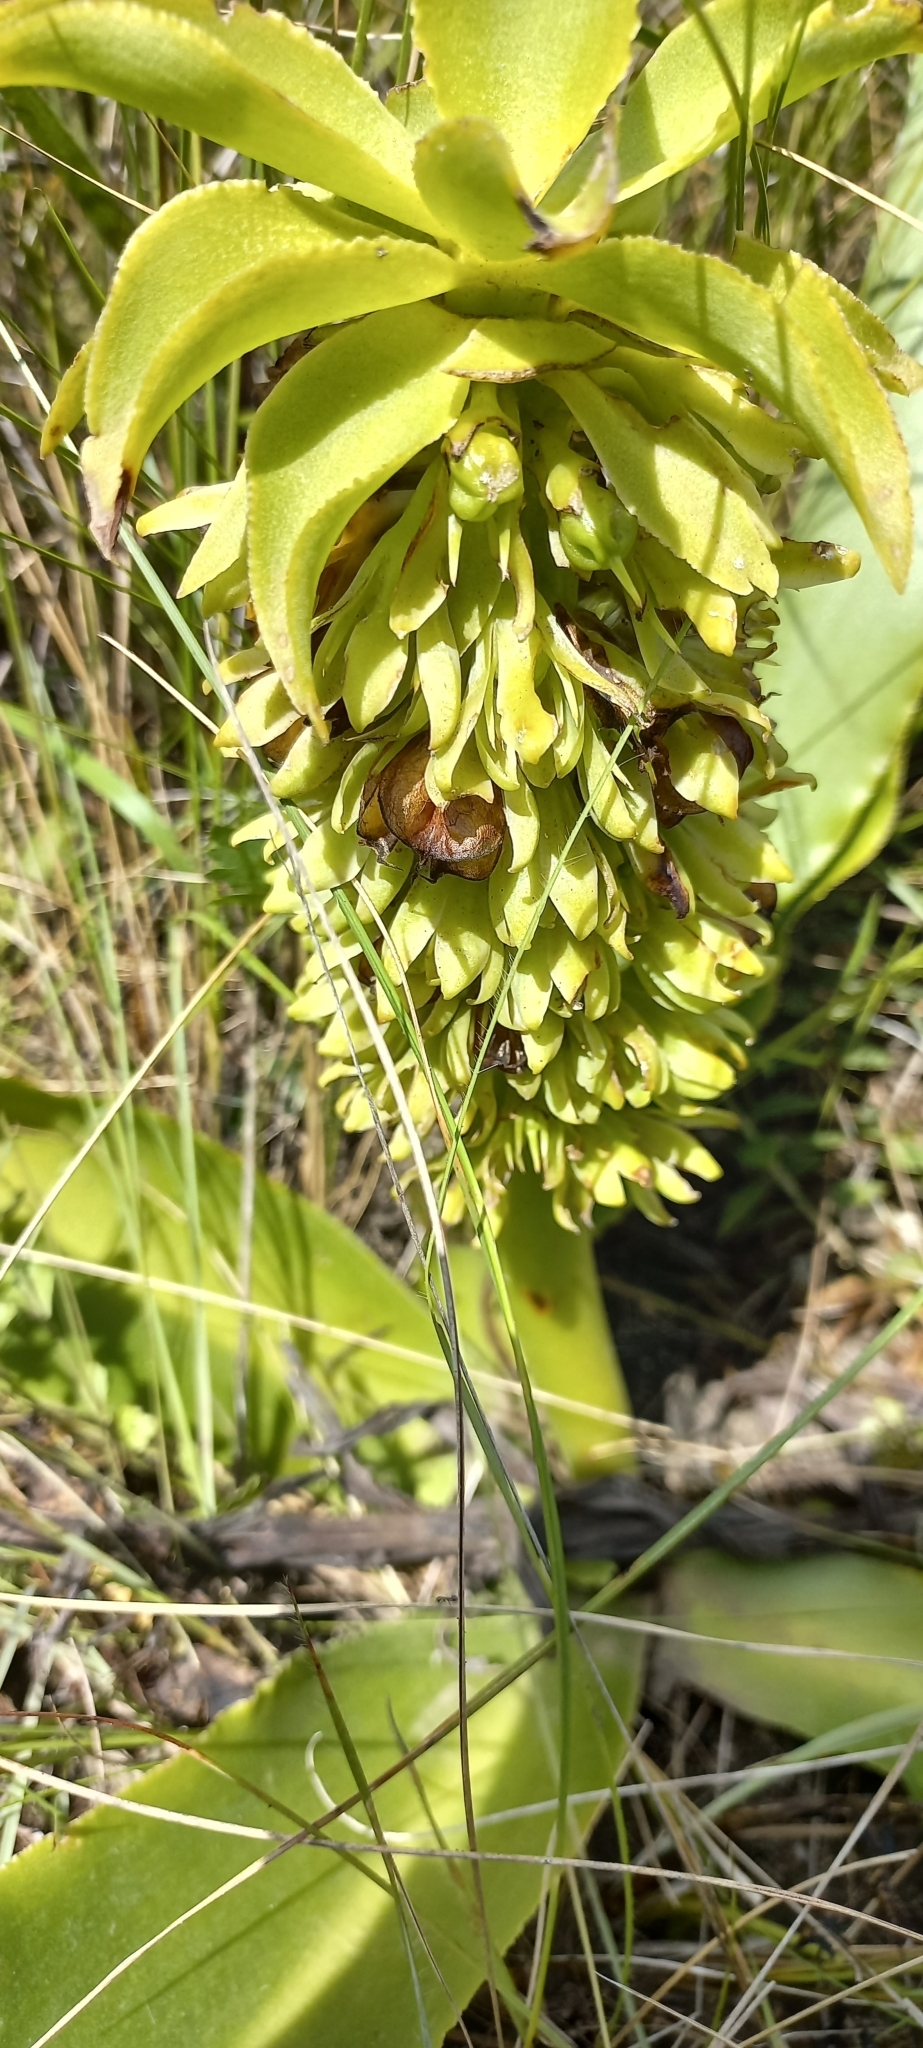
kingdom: Plantae
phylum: Tracheophyta
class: Liliopsida
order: Asparagales
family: Asparagaceae
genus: Eucomis
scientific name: Eucomis autumnalis
